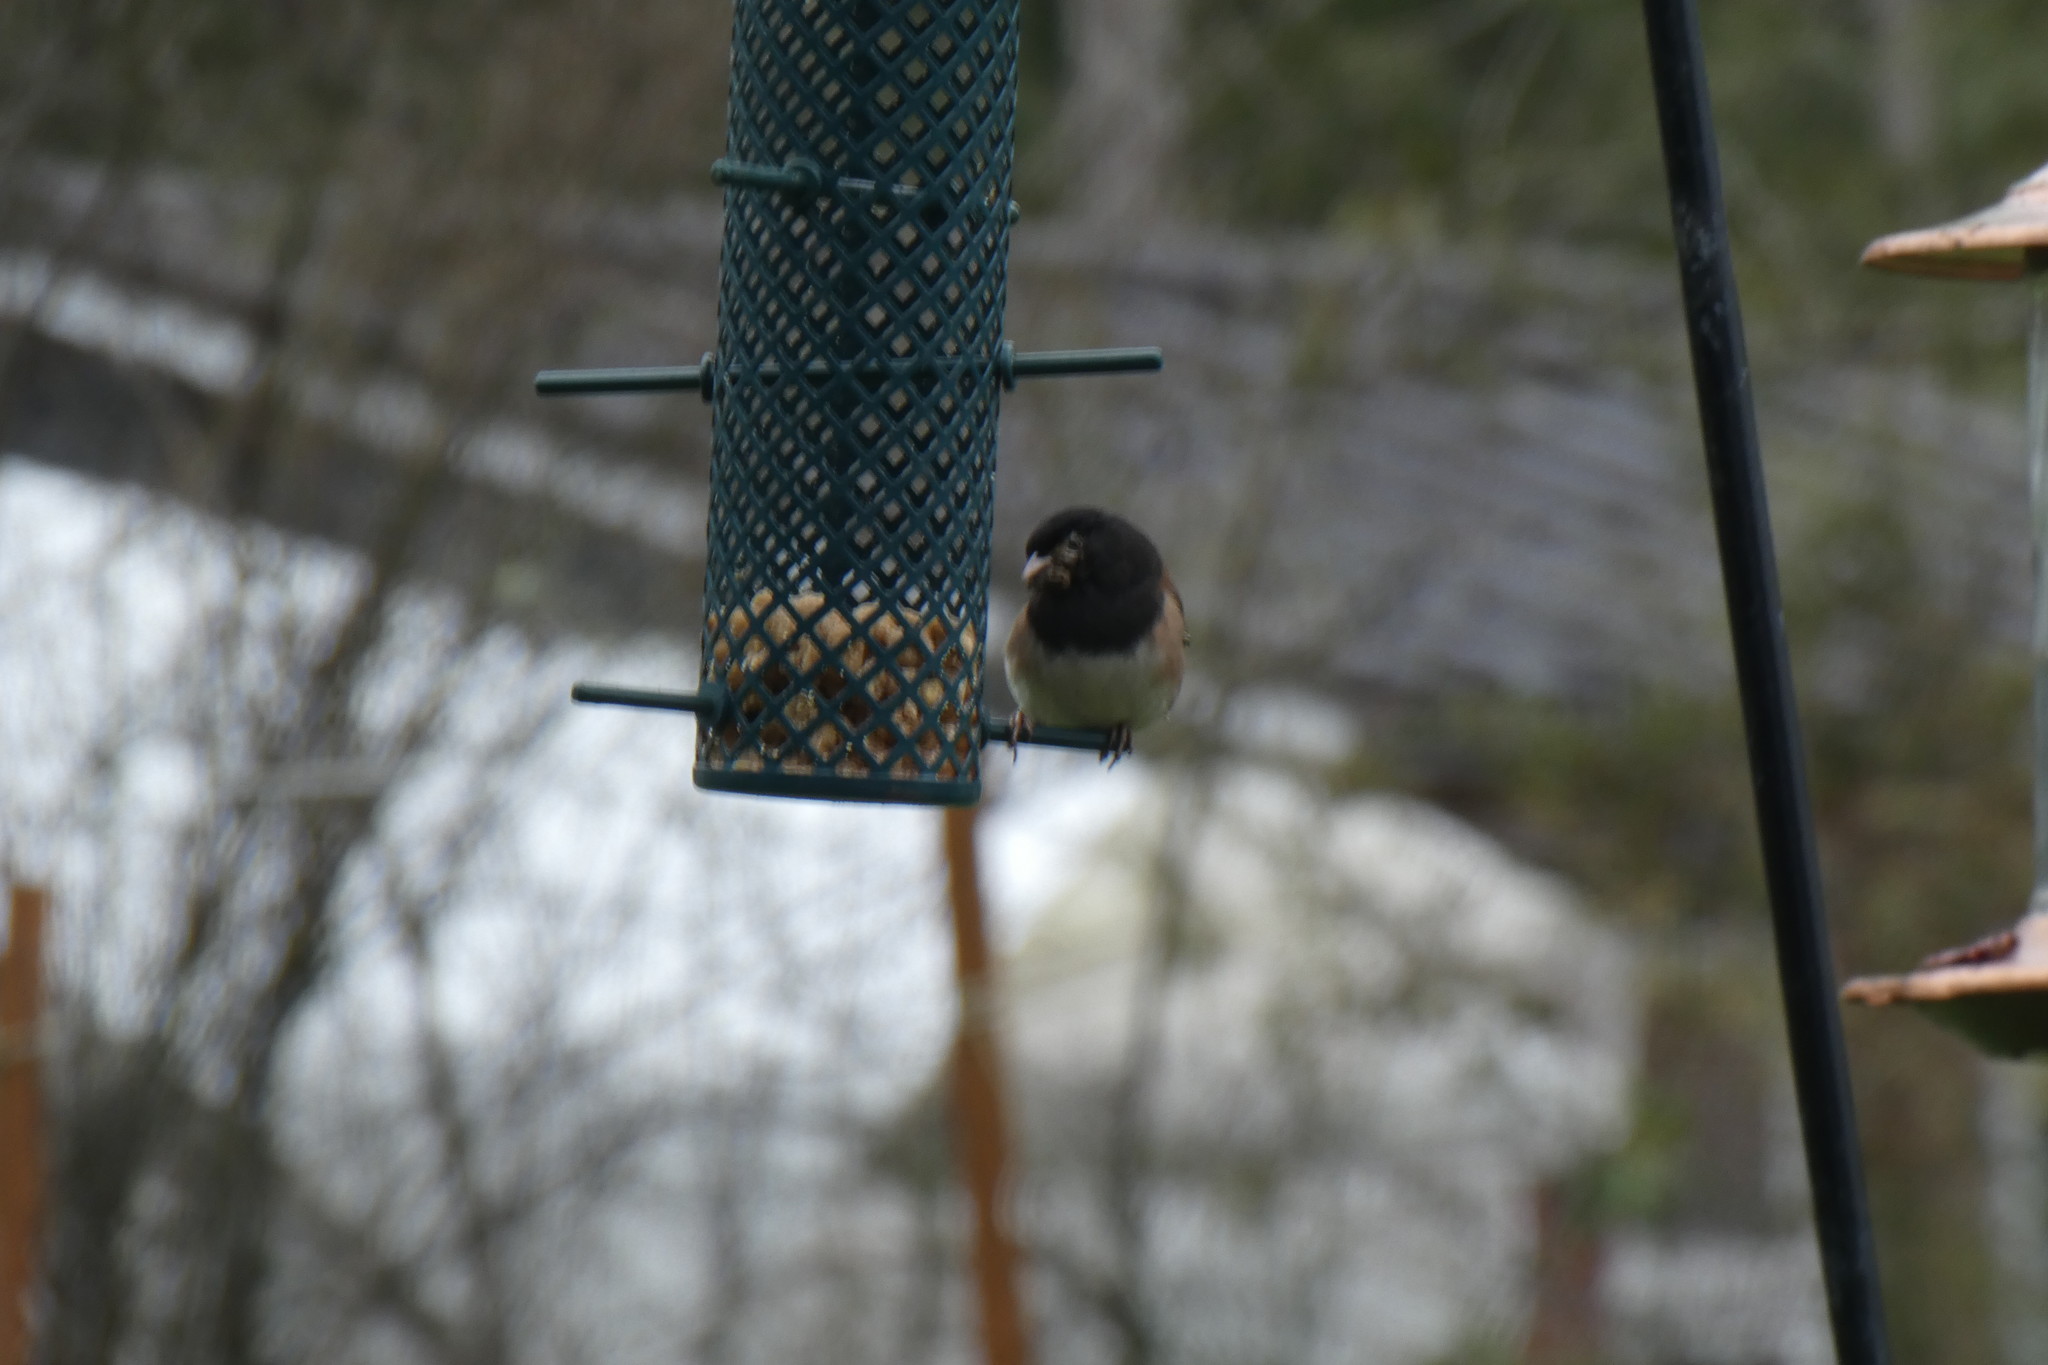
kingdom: Animalia
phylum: Chordata
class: Aves
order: Passeriformes
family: Passerellidae
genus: Junco
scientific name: Junco hyemalis
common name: Dark-eyed junco
